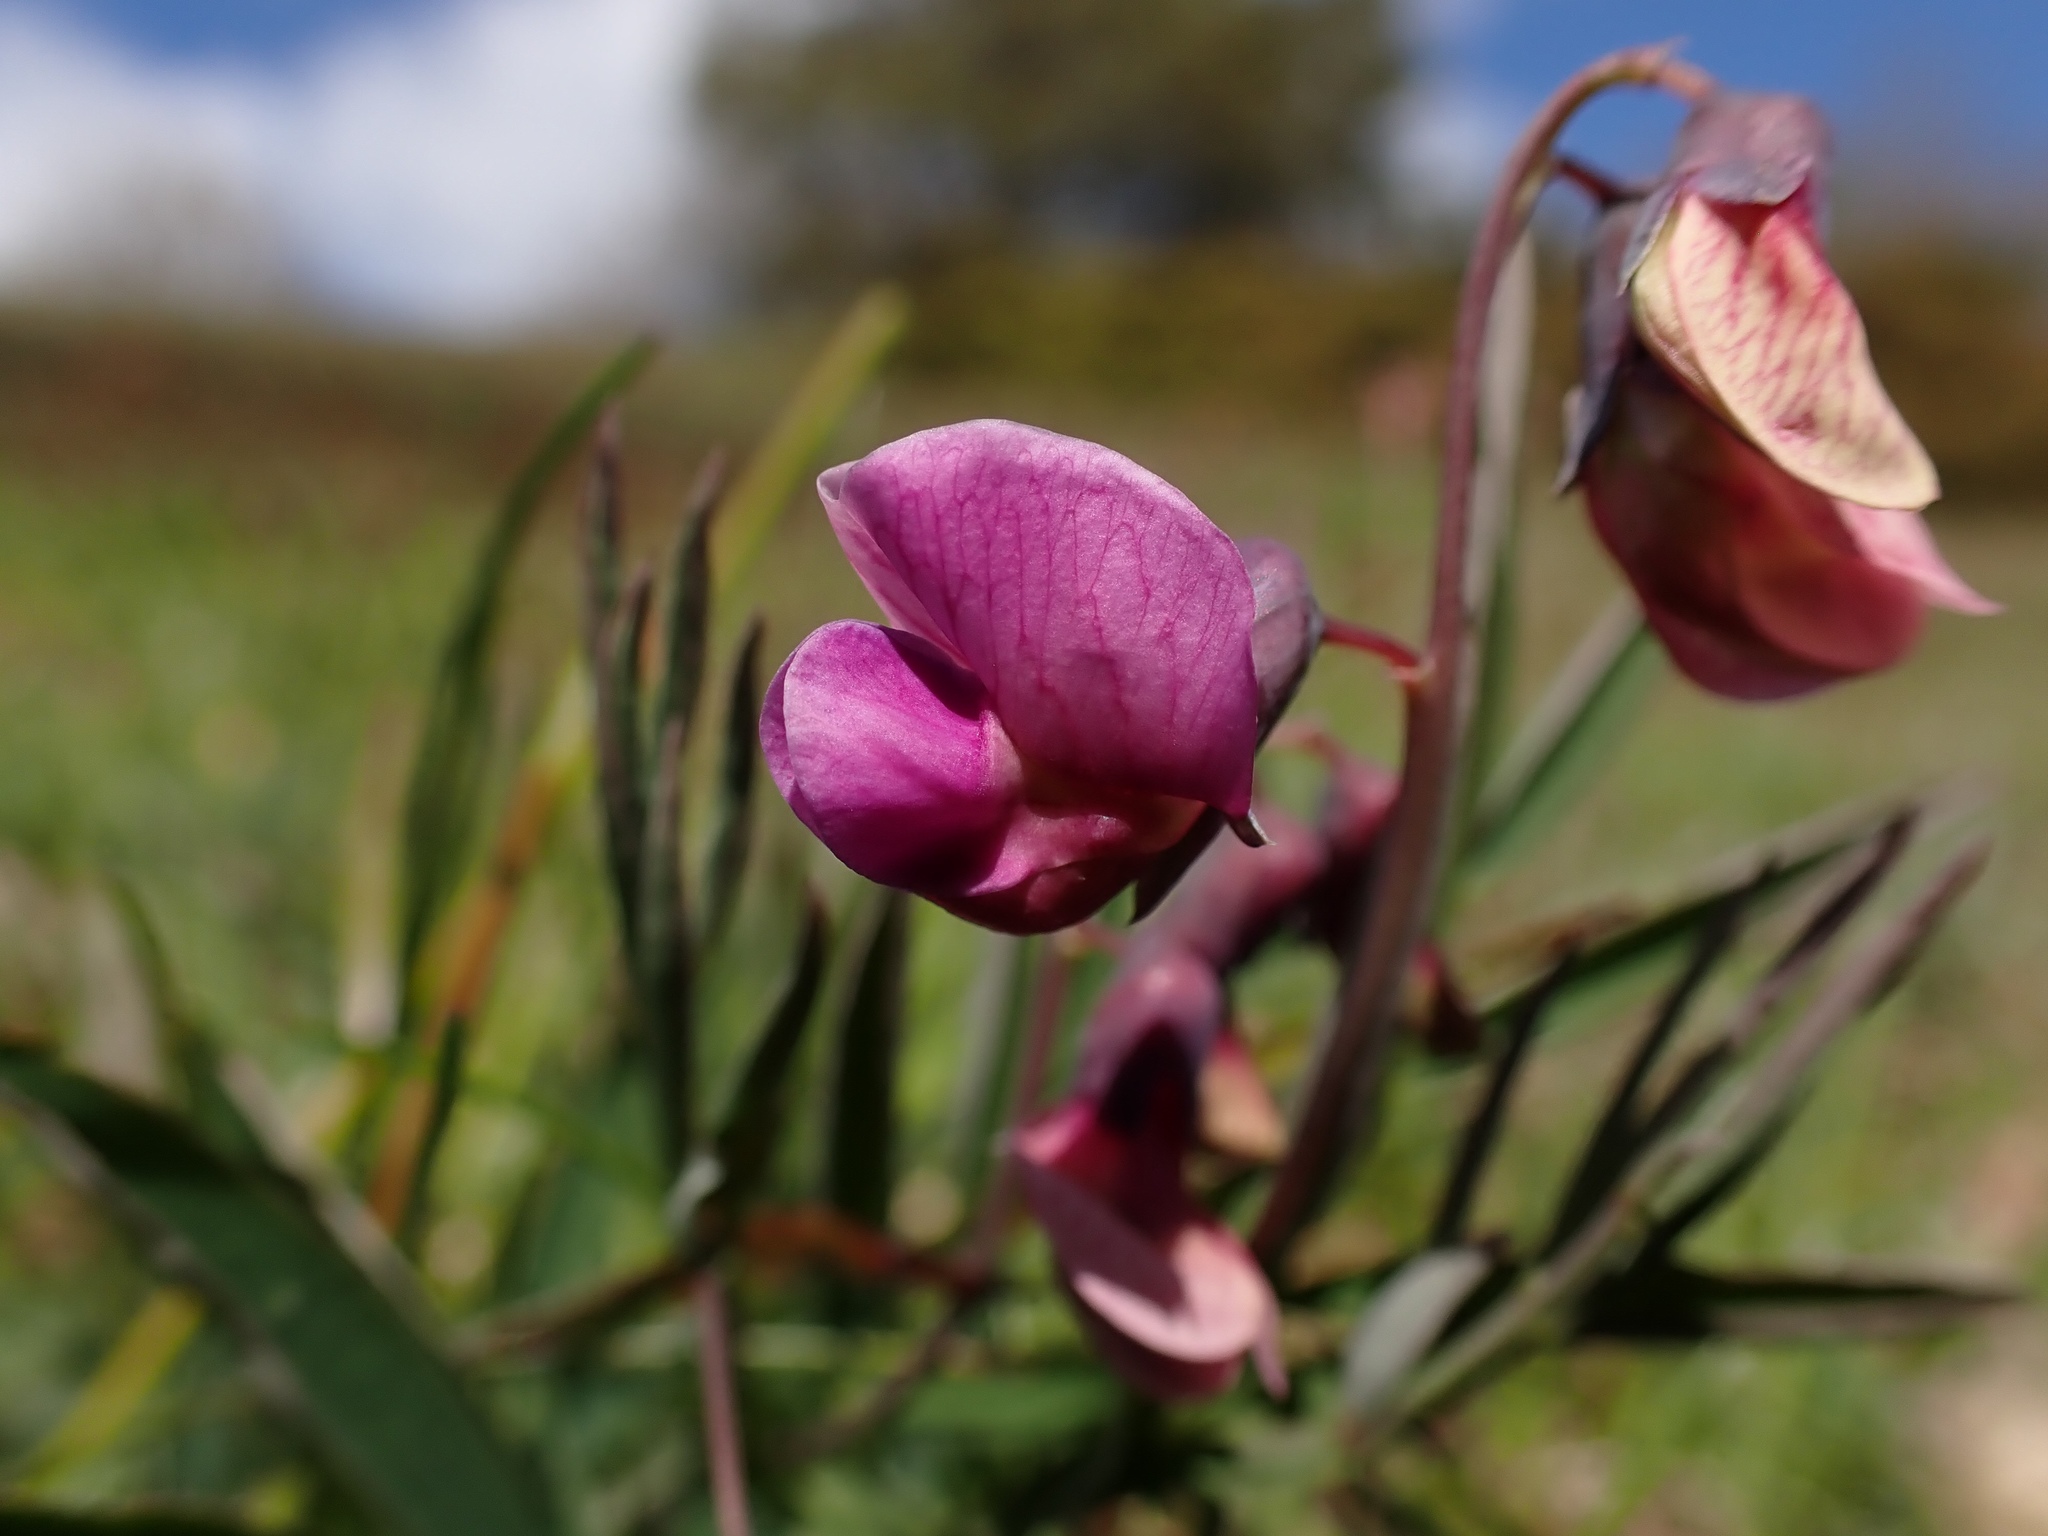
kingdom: Plantae
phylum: Tracheophyta
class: Magnoliopsida
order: Fabales
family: Fabaceae
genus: Lathyrus
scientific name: Lathyrus linifolius
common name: Bitter-vetch
